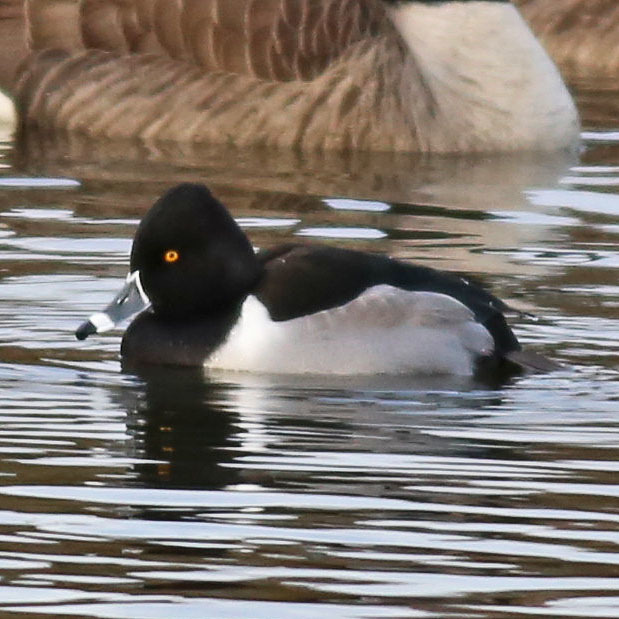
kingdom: Animalia
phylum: Chordata
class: Aves
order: Anseriformes
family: Anatidae
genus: Aythya
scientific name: Aythya collaris
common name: Ring-necked duck
